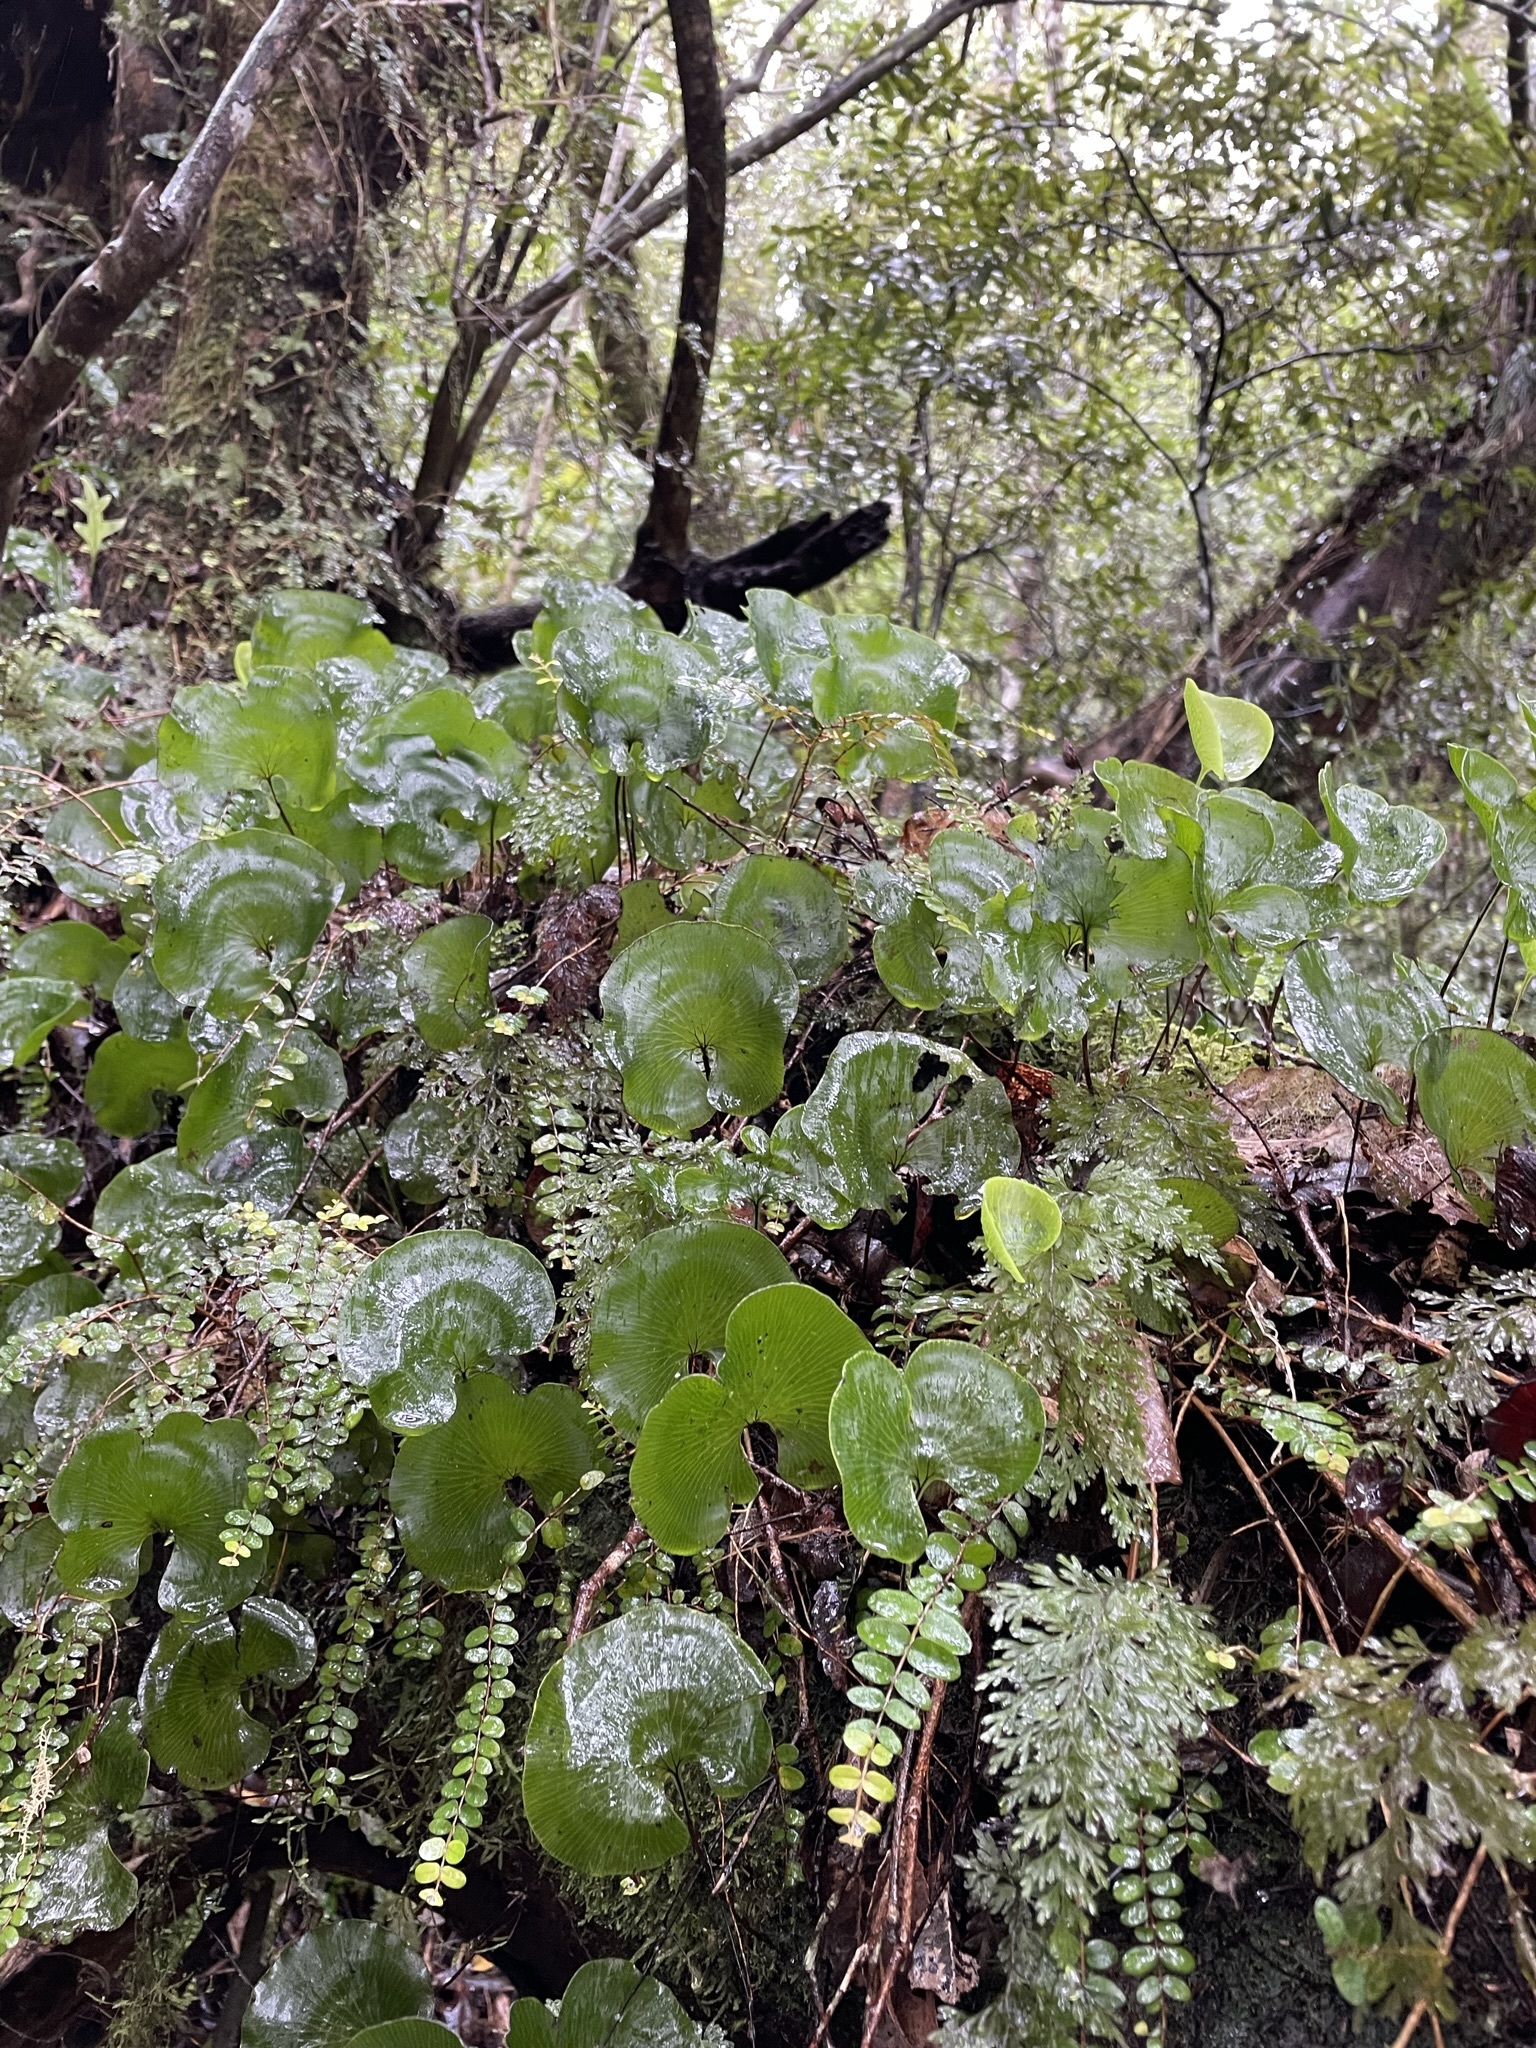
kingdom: Plantae
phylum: Tracheophyta
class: Polypodiopsida
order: Hymenophyllales
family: Hymenophyllaceae
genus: Hymenophyllum
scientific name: Hymenophyllum nephrophyllum
